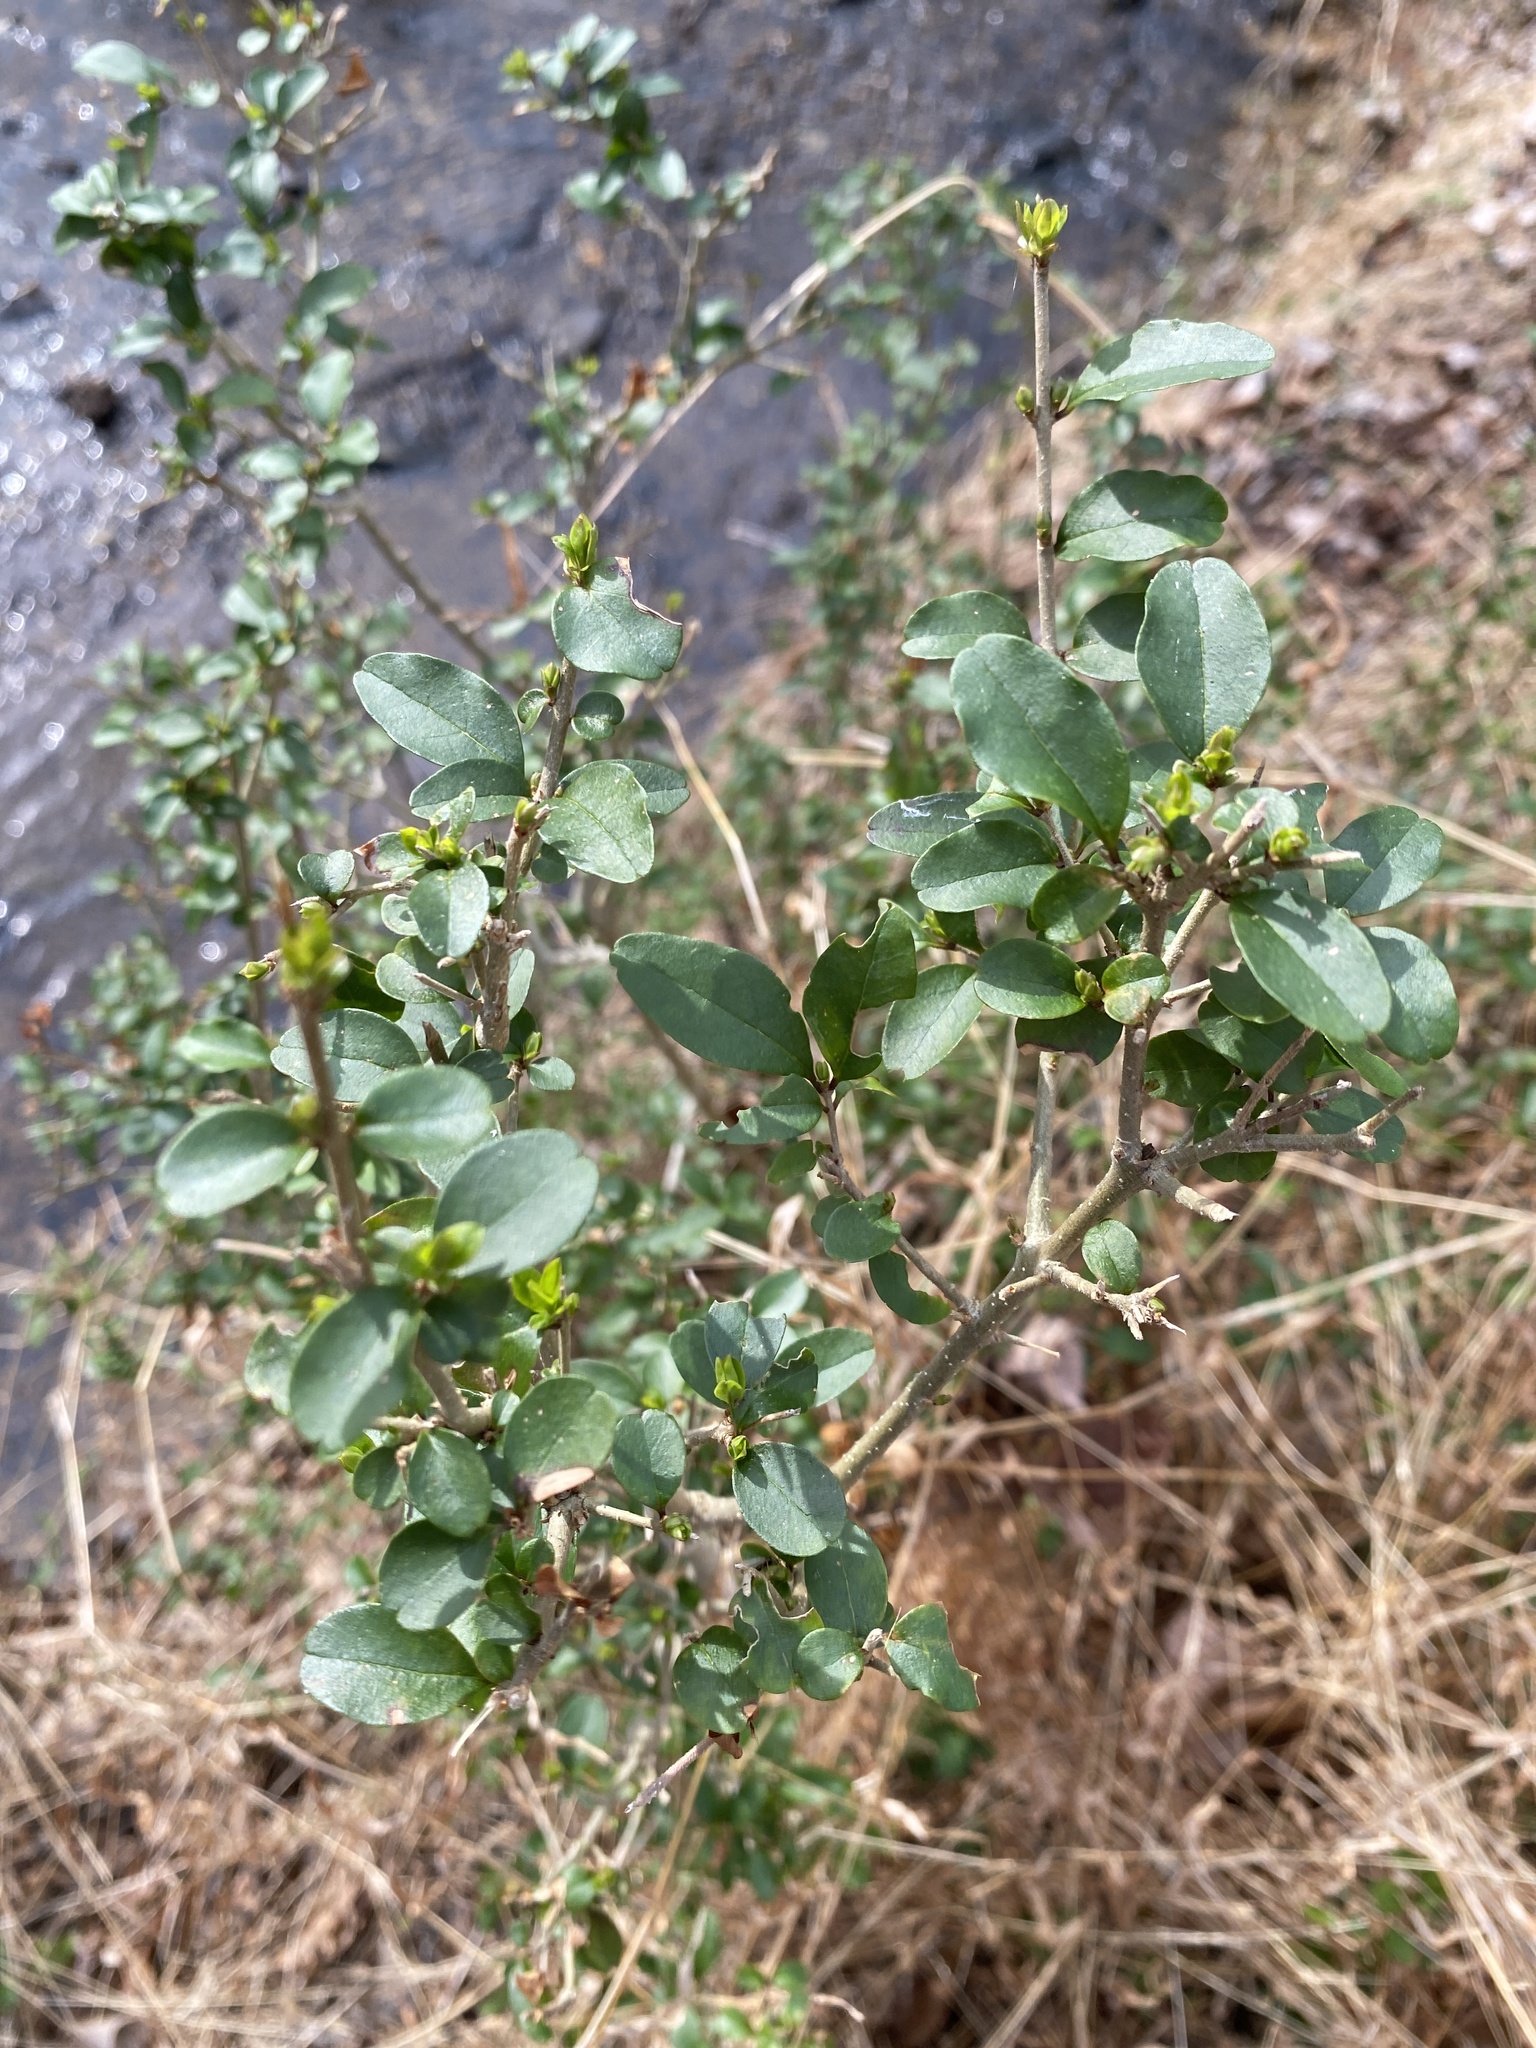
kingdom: Plantae
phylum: Tracheophyta
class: Magnoliopsida
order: Lamiales
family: Oleaceae
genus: Ligustrum
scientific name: Ligustrum sinense
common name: Chinese privet
